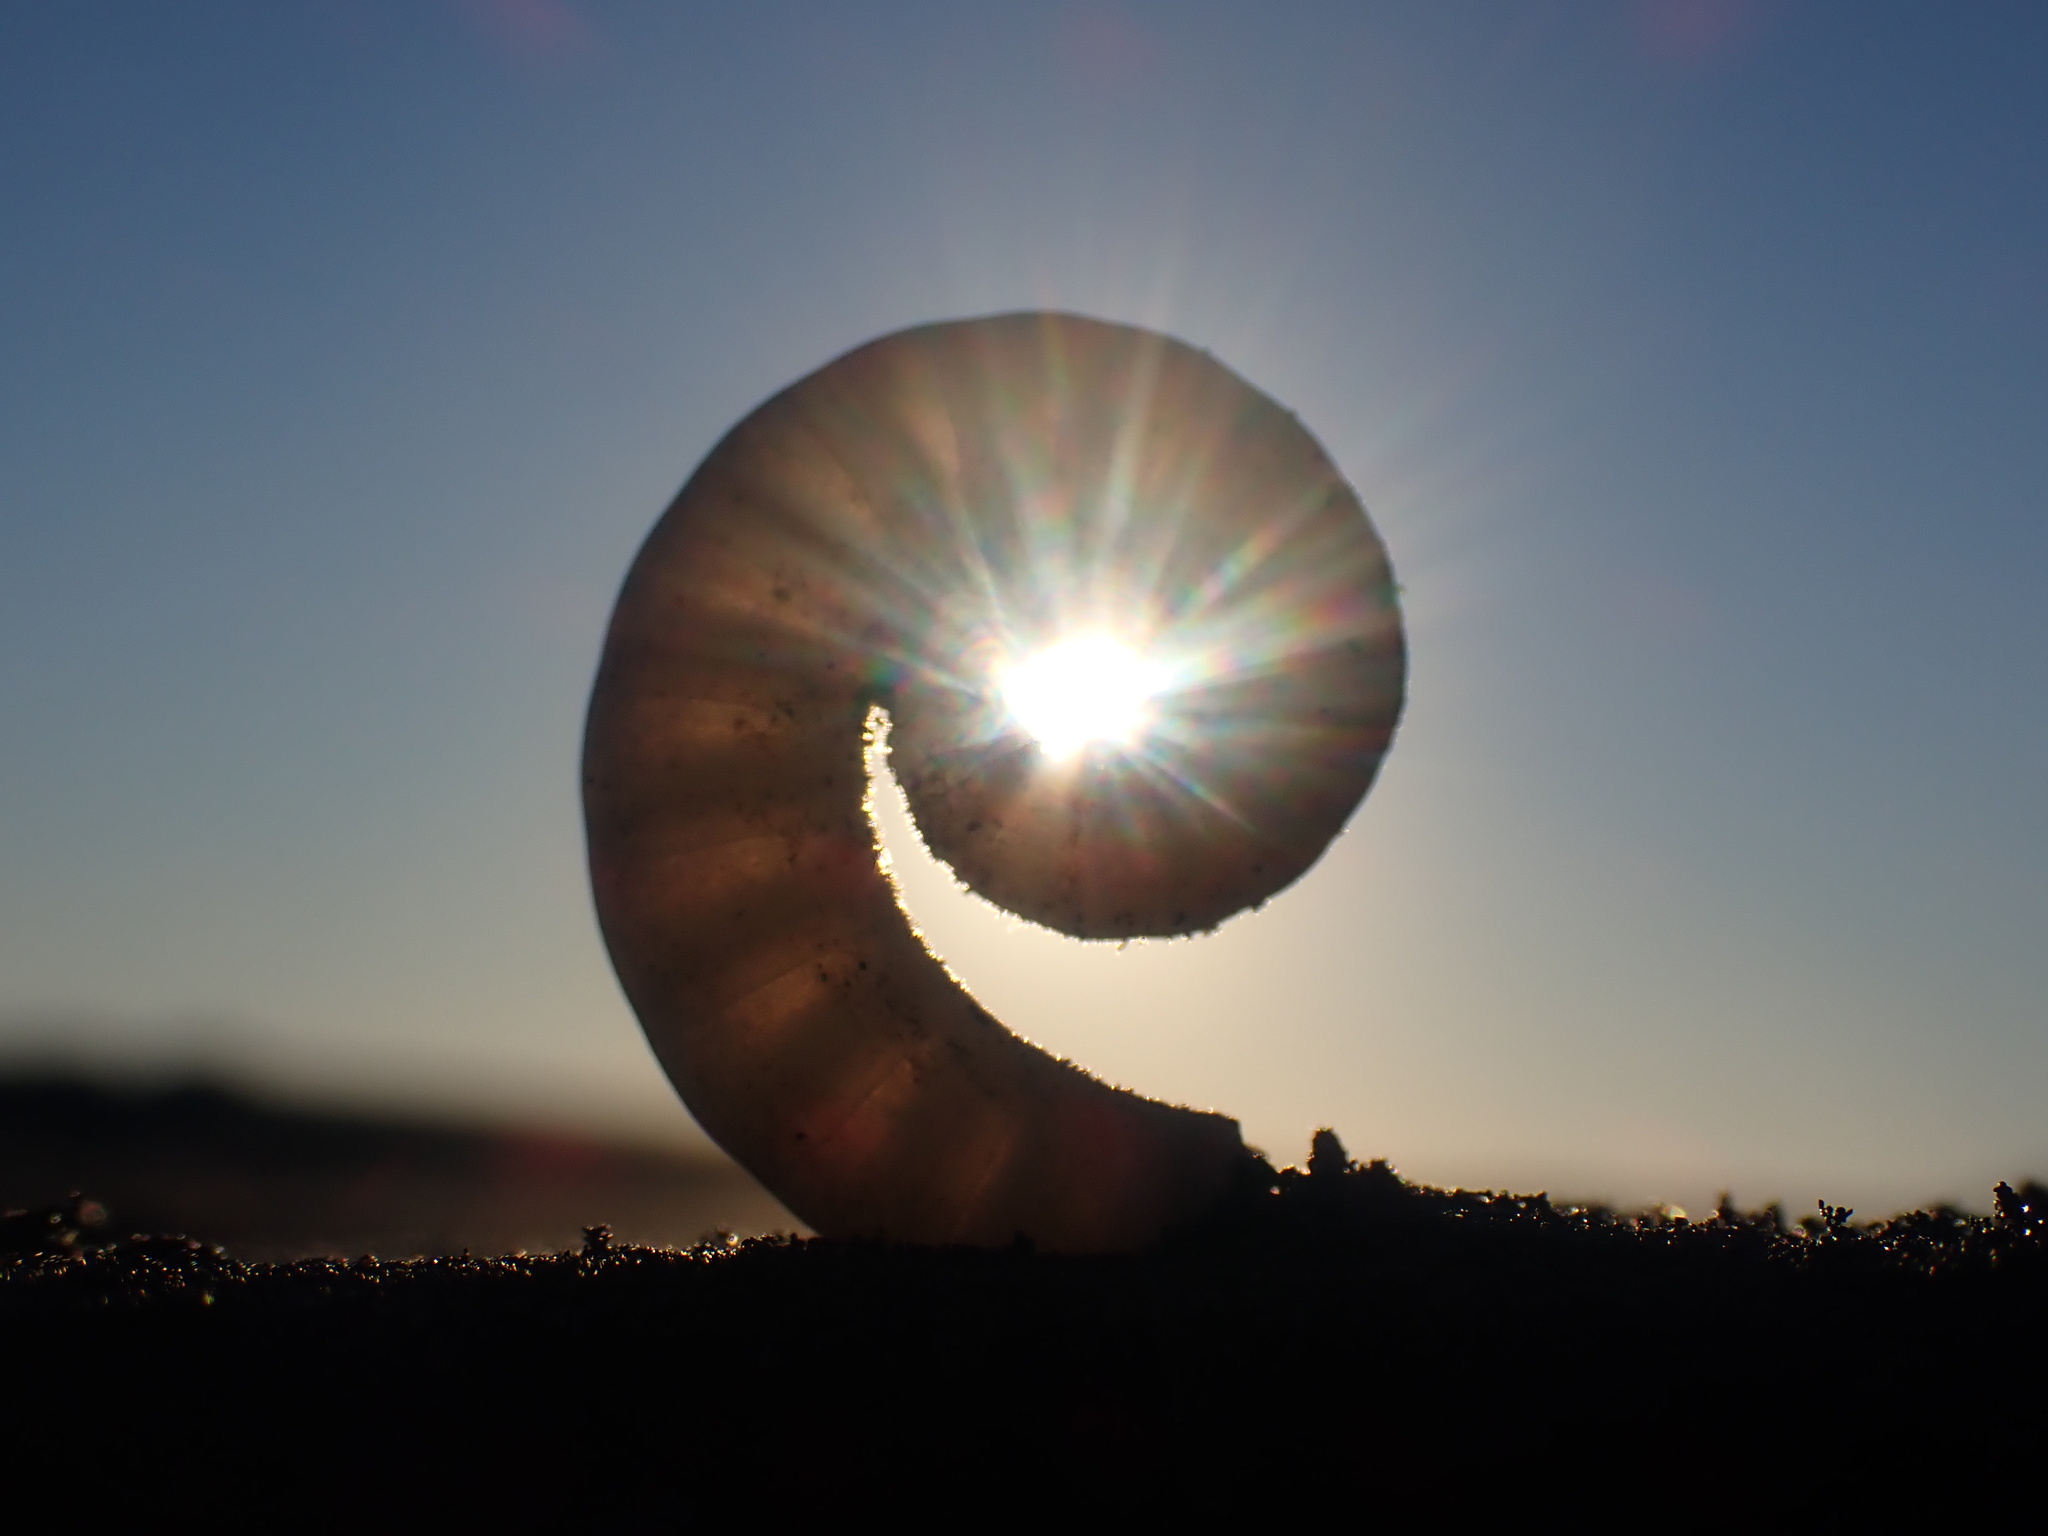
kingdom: Animalia
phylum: Mollusca
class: Cephalopoda
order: Spirulida
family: Spirulidae
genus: Spirula
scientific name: Spirula spirula
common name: Ram's horn squid
